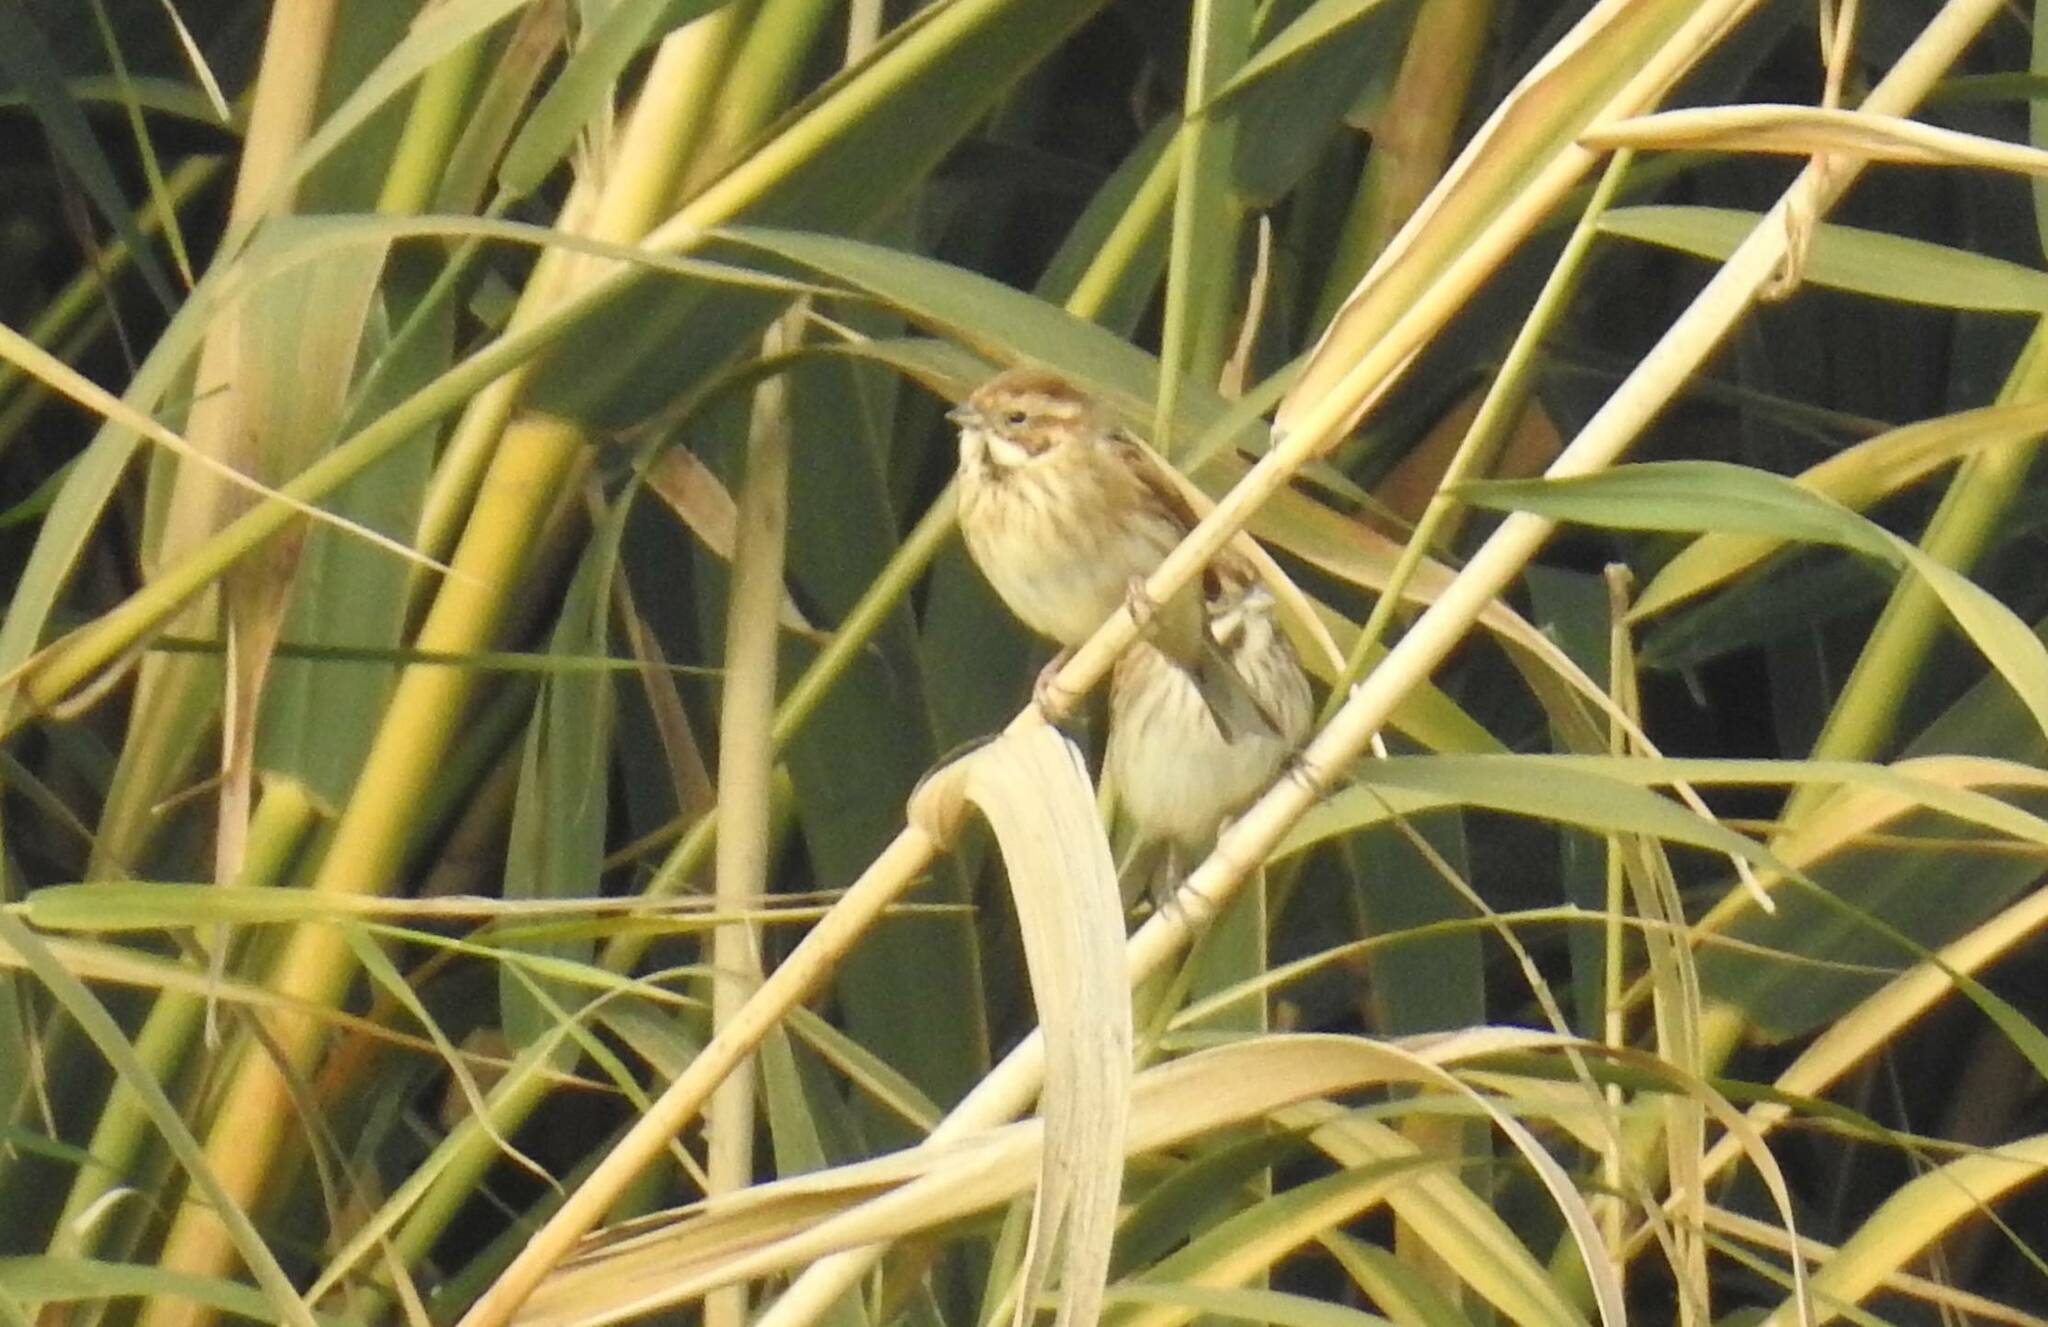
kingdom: Animalia
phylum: Chordata
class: Aves
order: Passeriformes
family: Emberizidae
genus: Emberiza
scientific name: Emberiza schoeniclus
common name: Reed bunting
